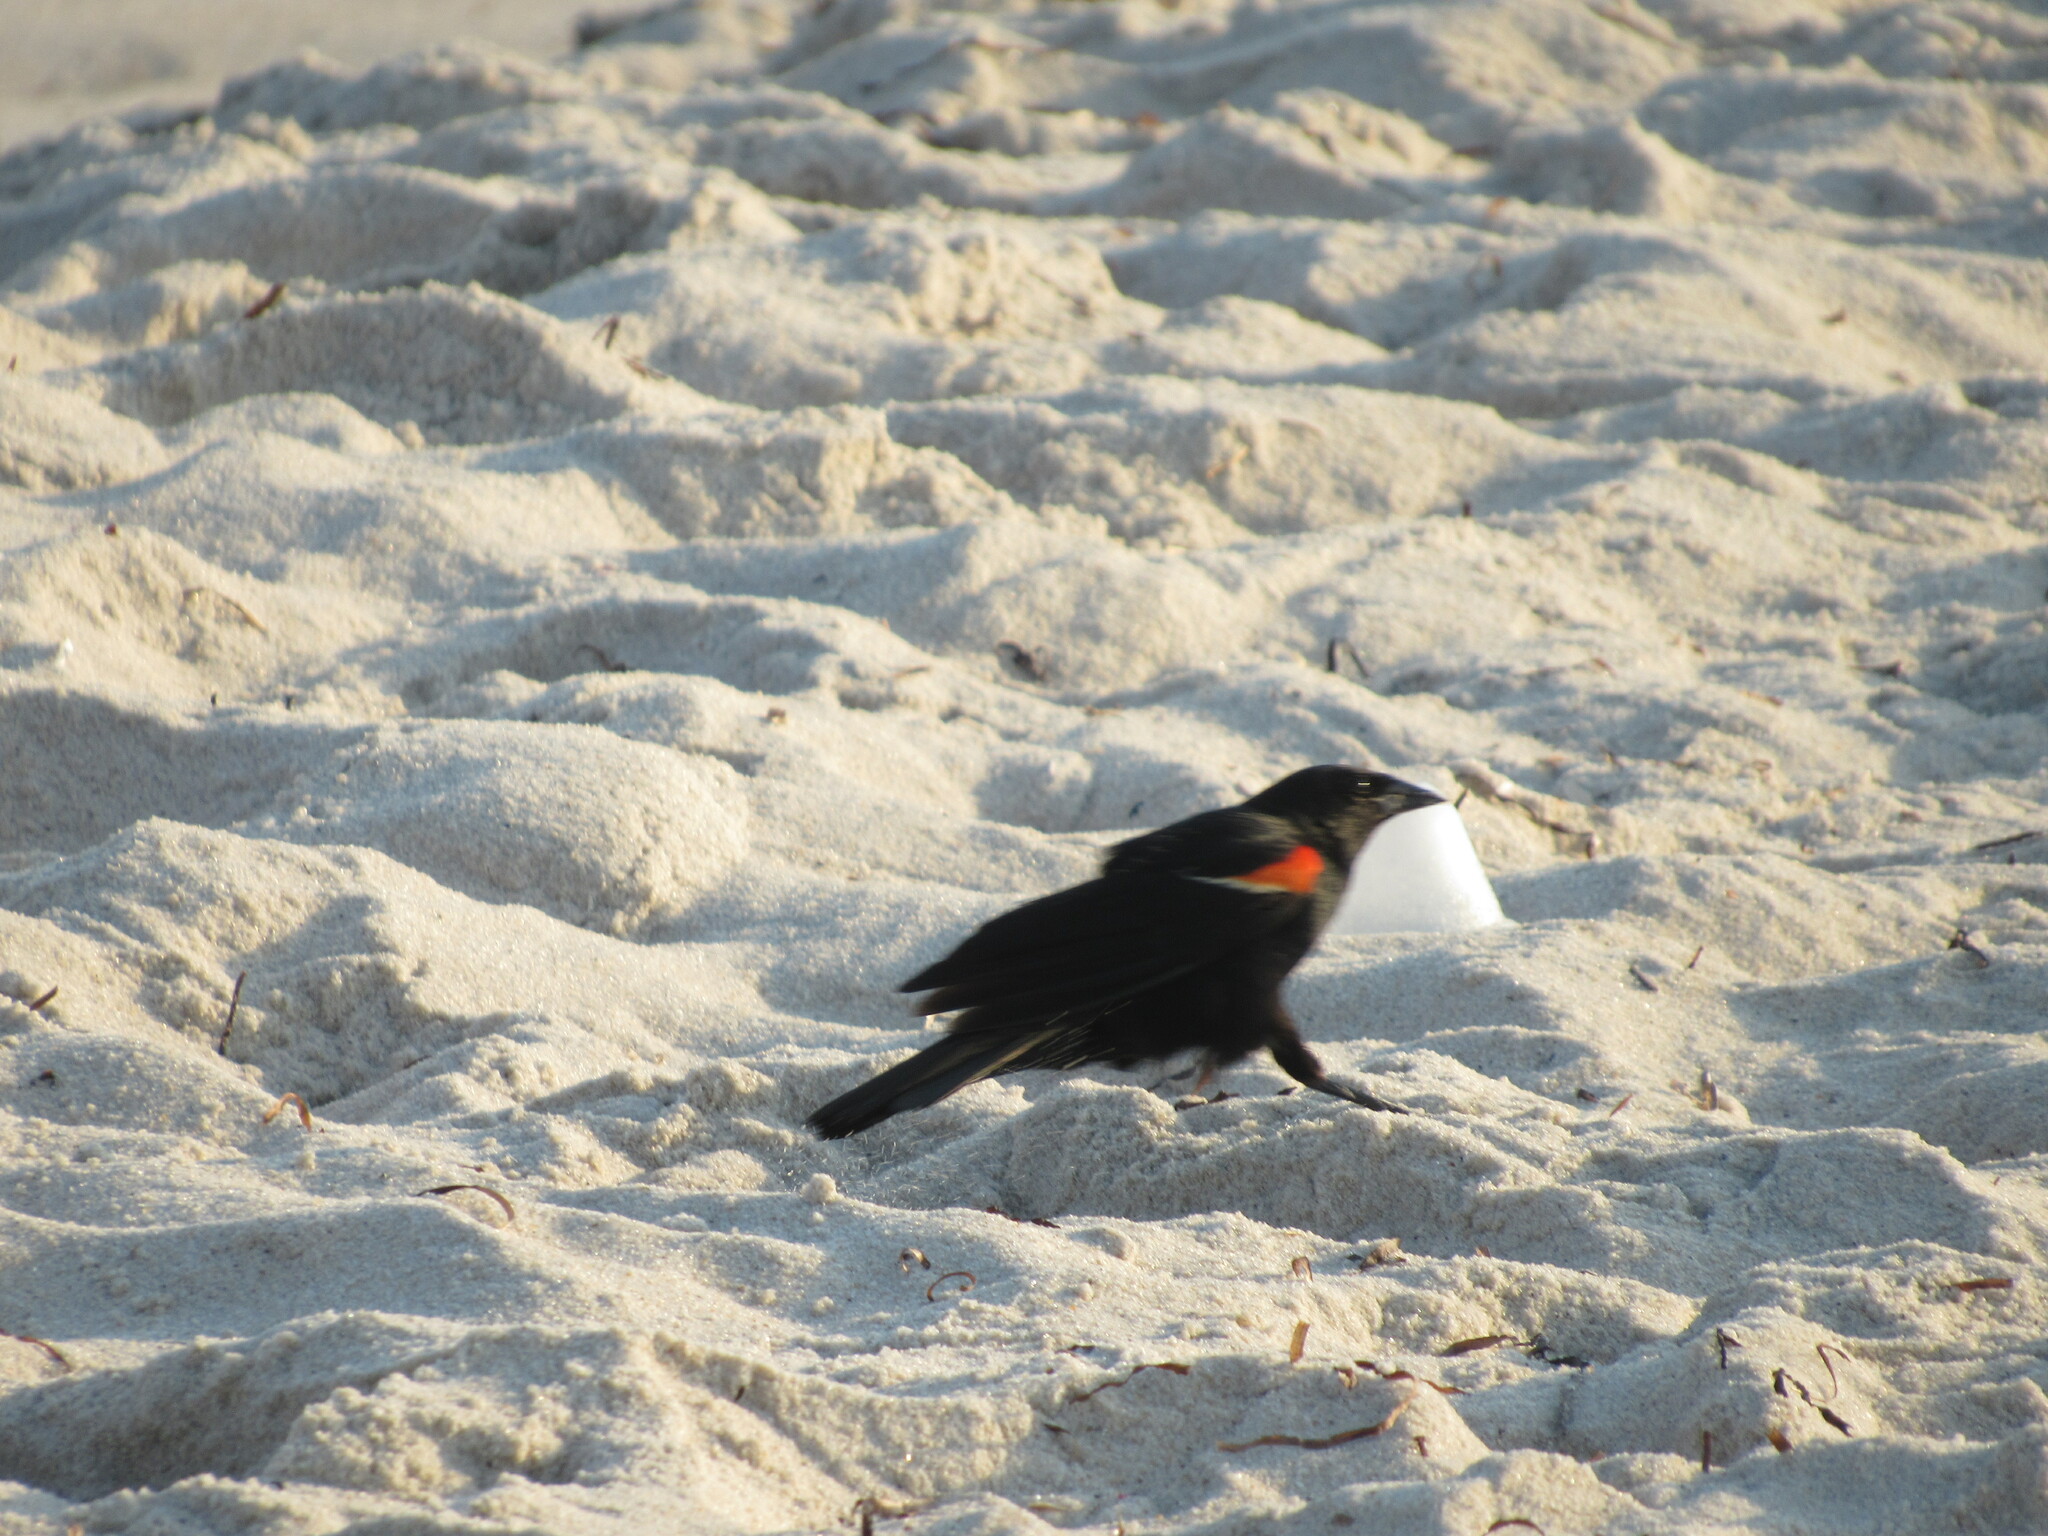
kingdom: Animalia
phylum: Chordata
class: Aves
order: Passeriformes
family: Icteridae
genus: Agelaius
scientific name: Agelaius phoeniceus
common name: Red-winged blackbird
